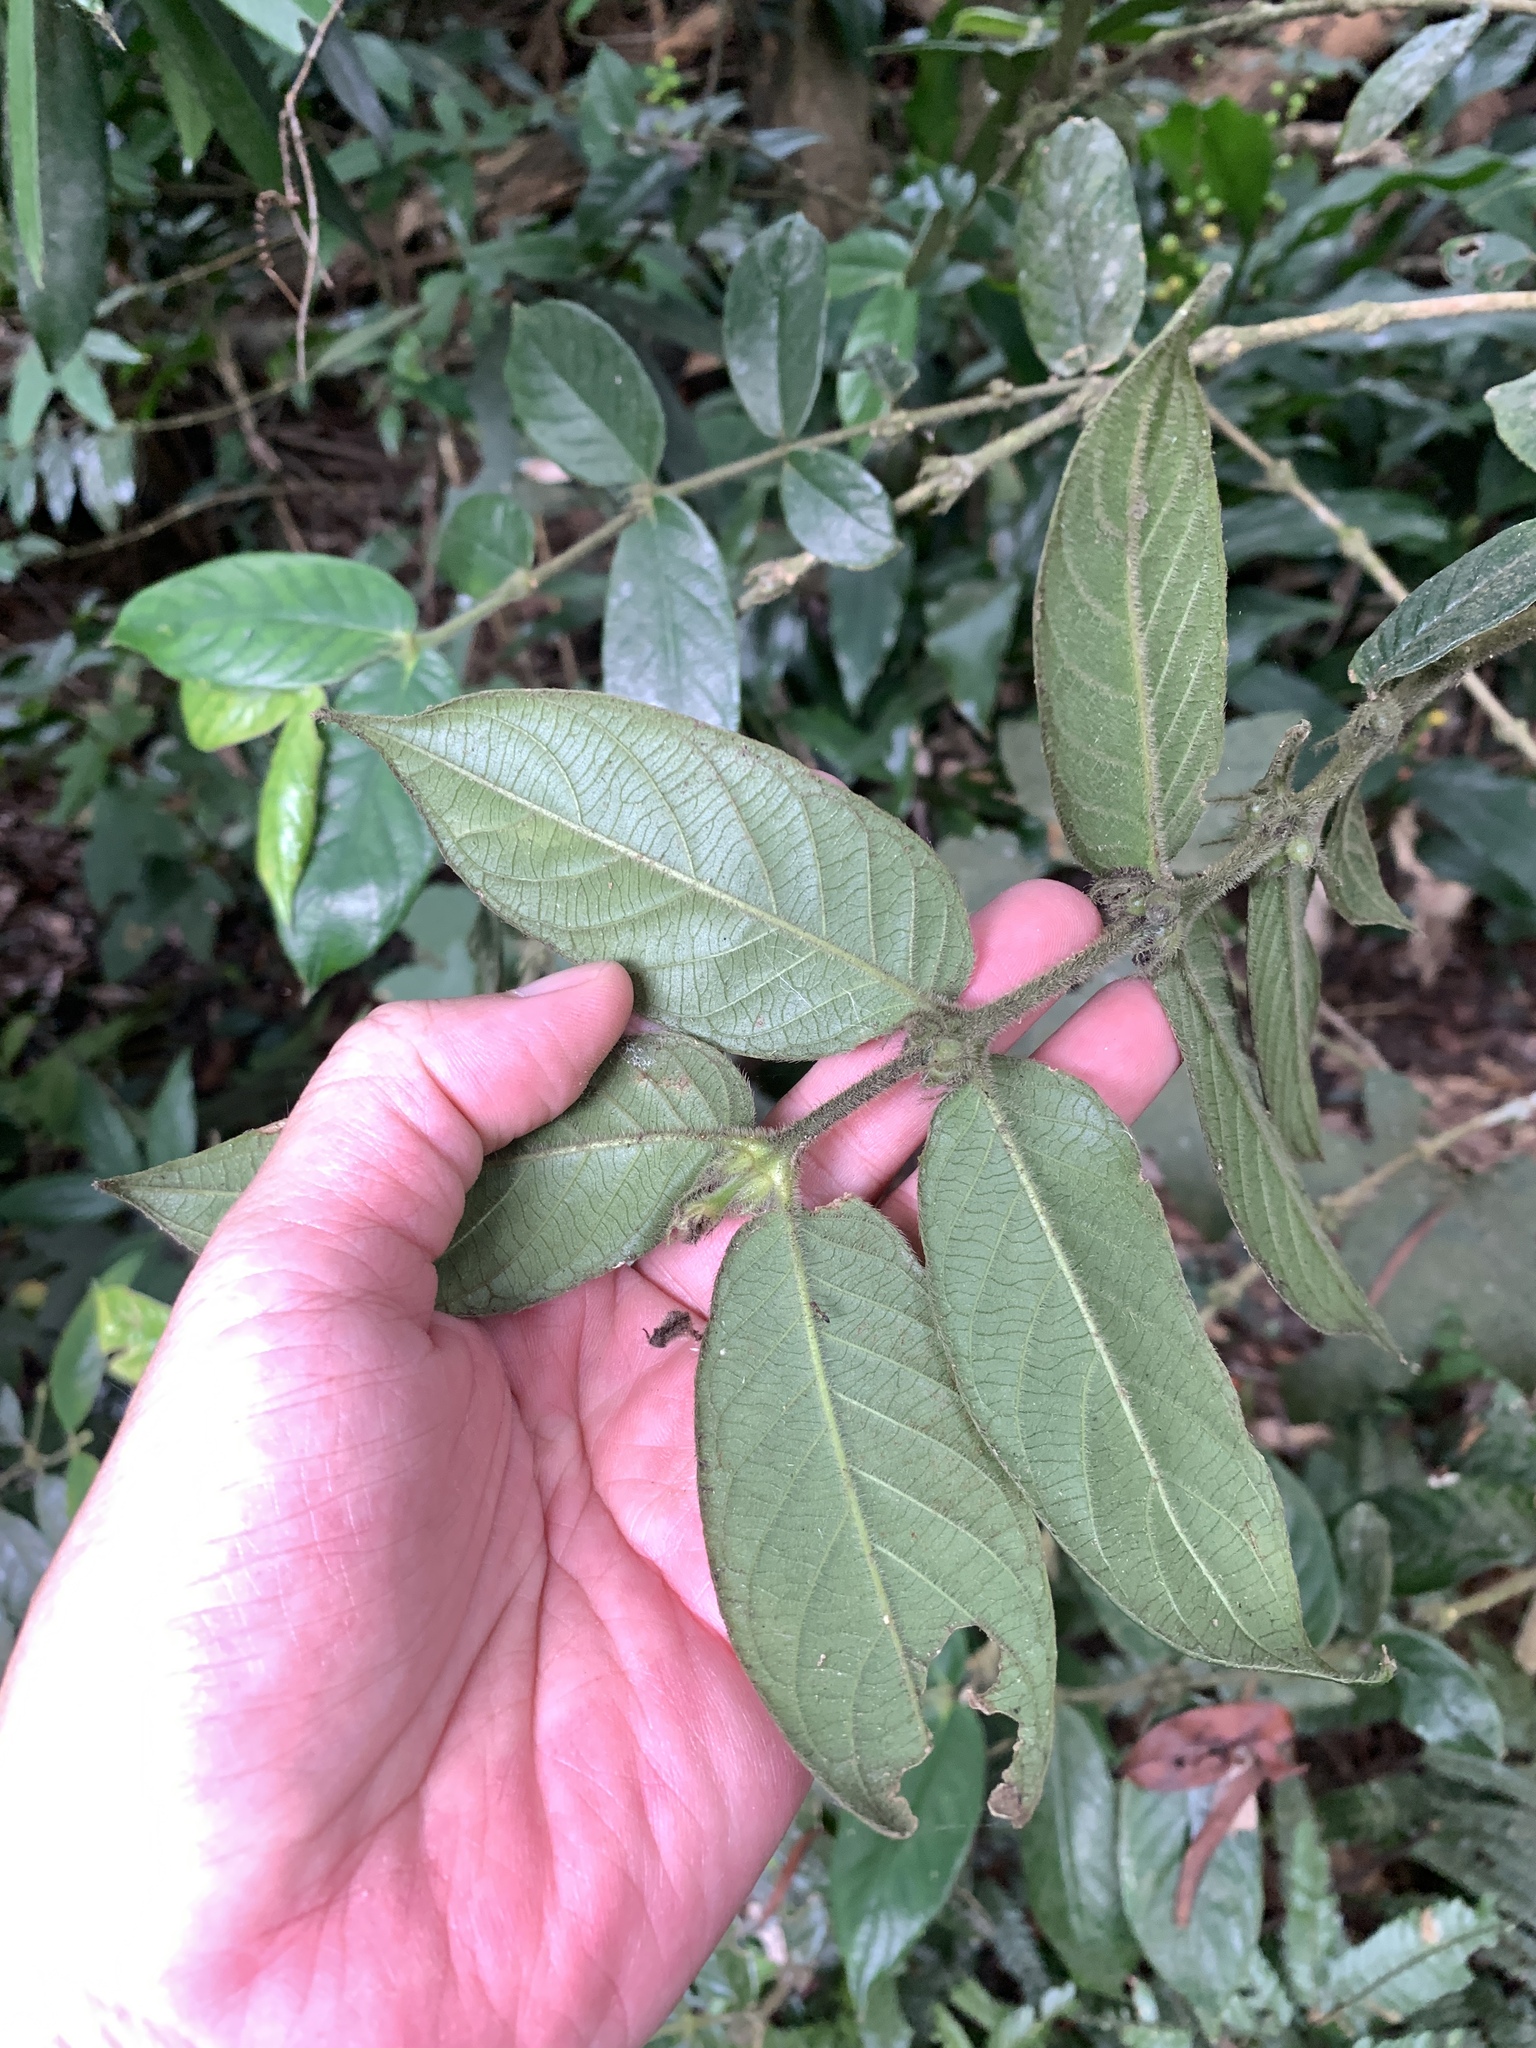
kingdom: Plantae
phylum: Tracheophyta
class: Magnoliopsida
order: Gentianales
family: Rubiaceae
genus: Lasianthus
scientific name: Lasianthus attenuatus
